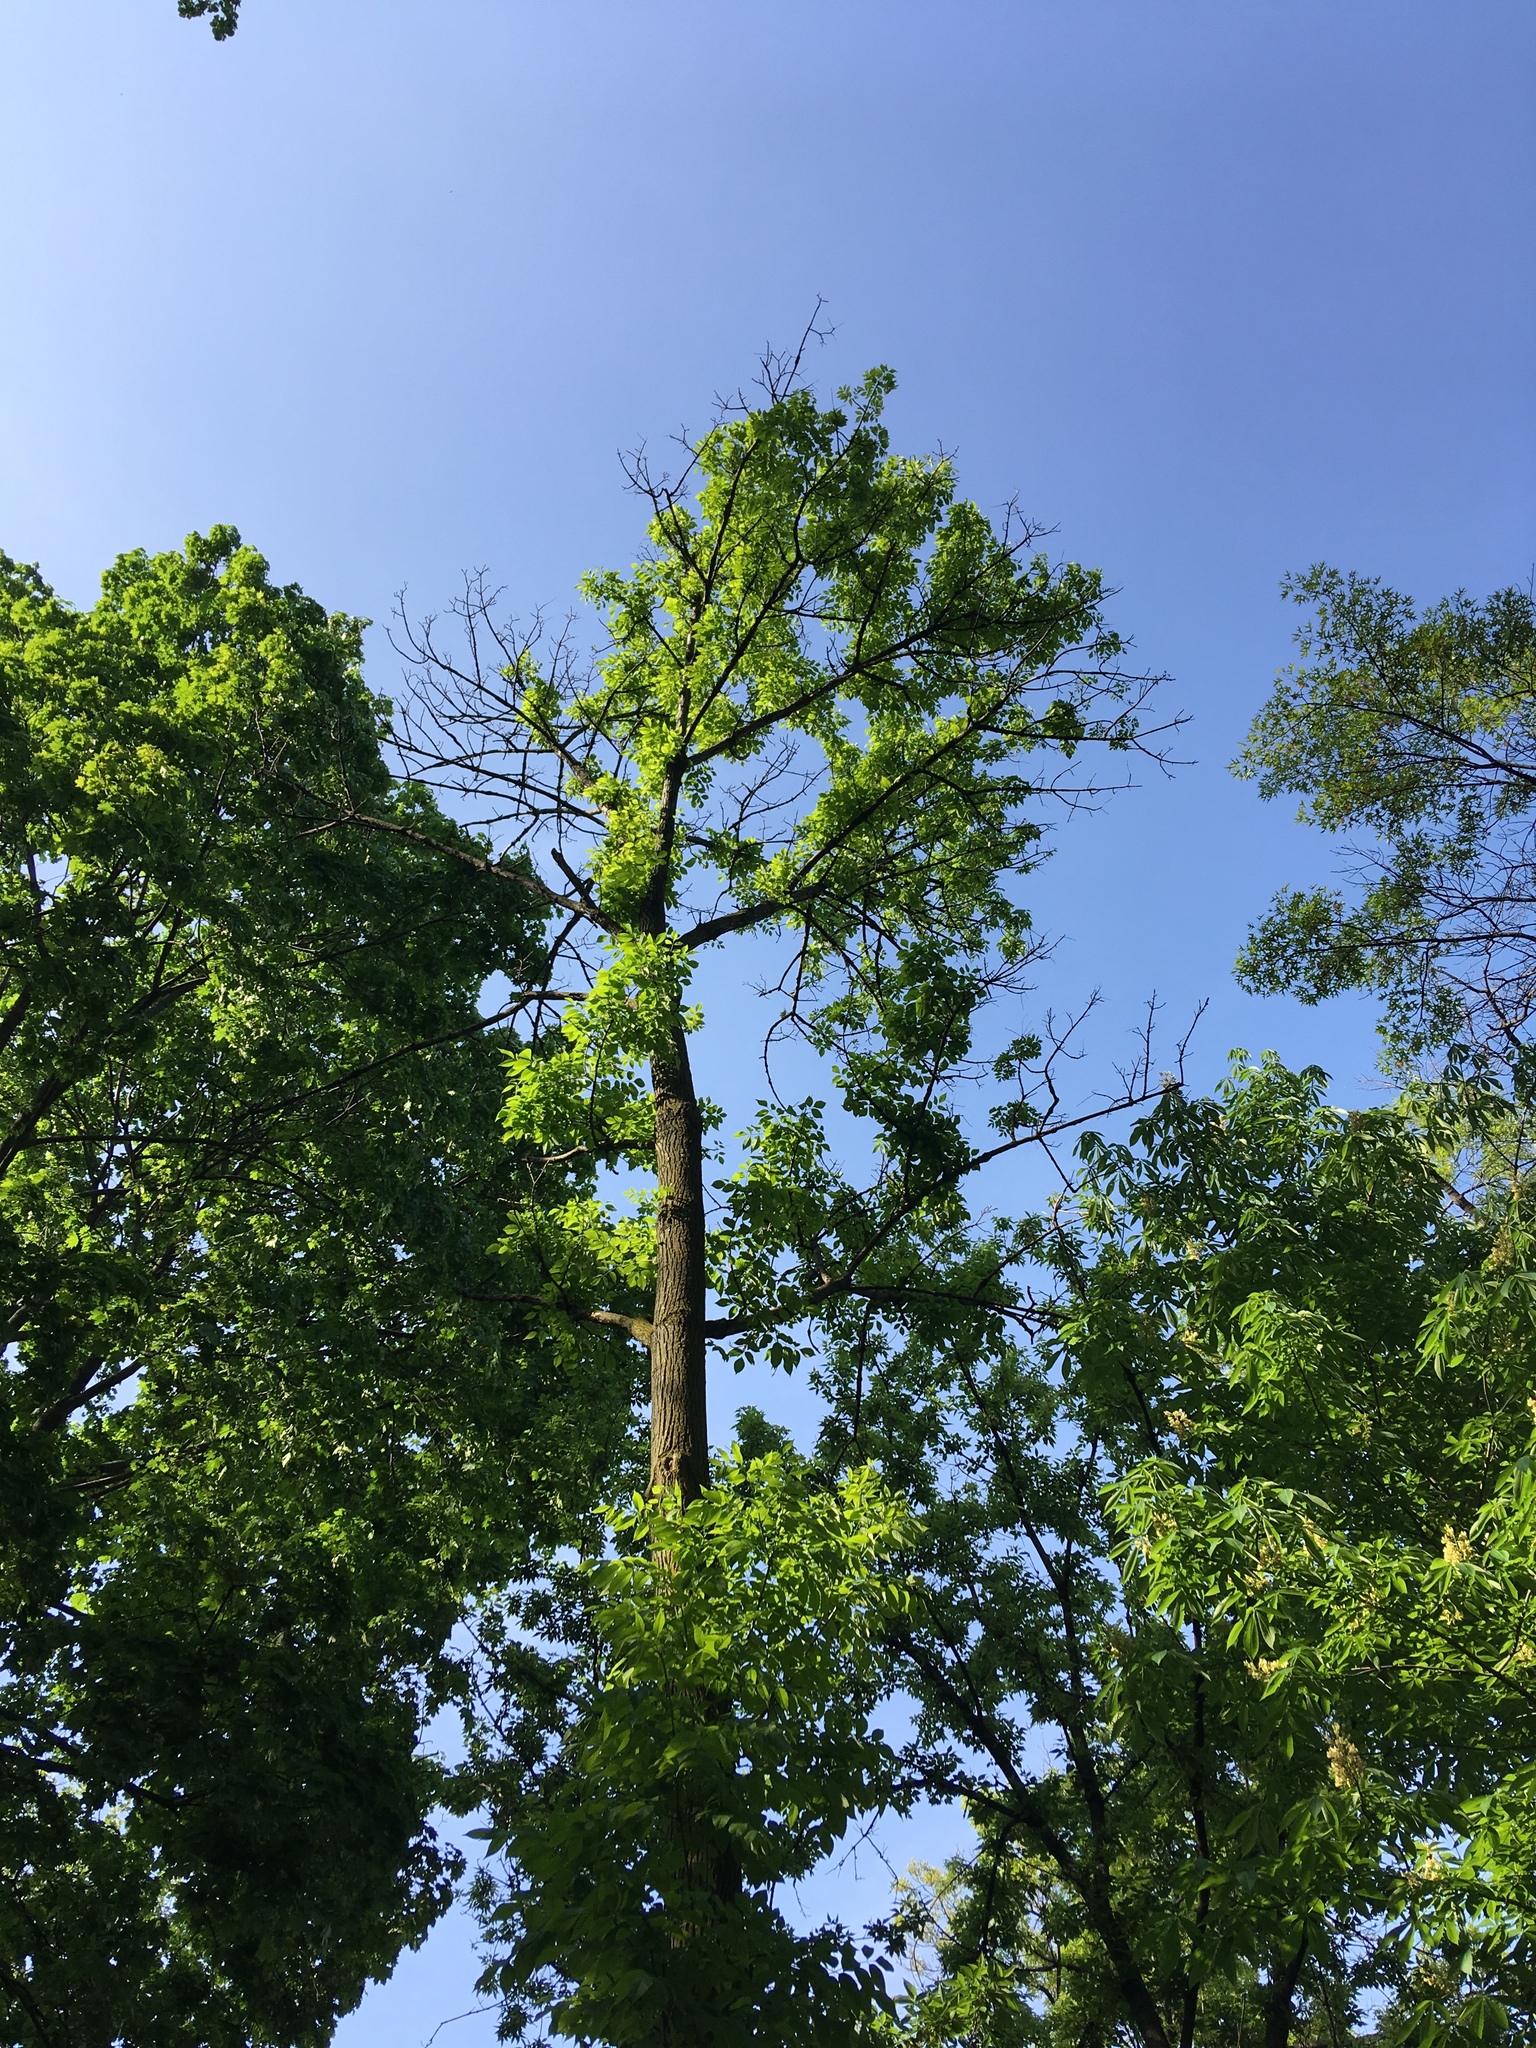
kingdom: Plantae
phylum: Tracheophyta
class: Magnoliopsida
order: Lamiales
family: Oleaceae
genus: Fraxinus
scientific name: Fraxinus americana
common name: White ash
